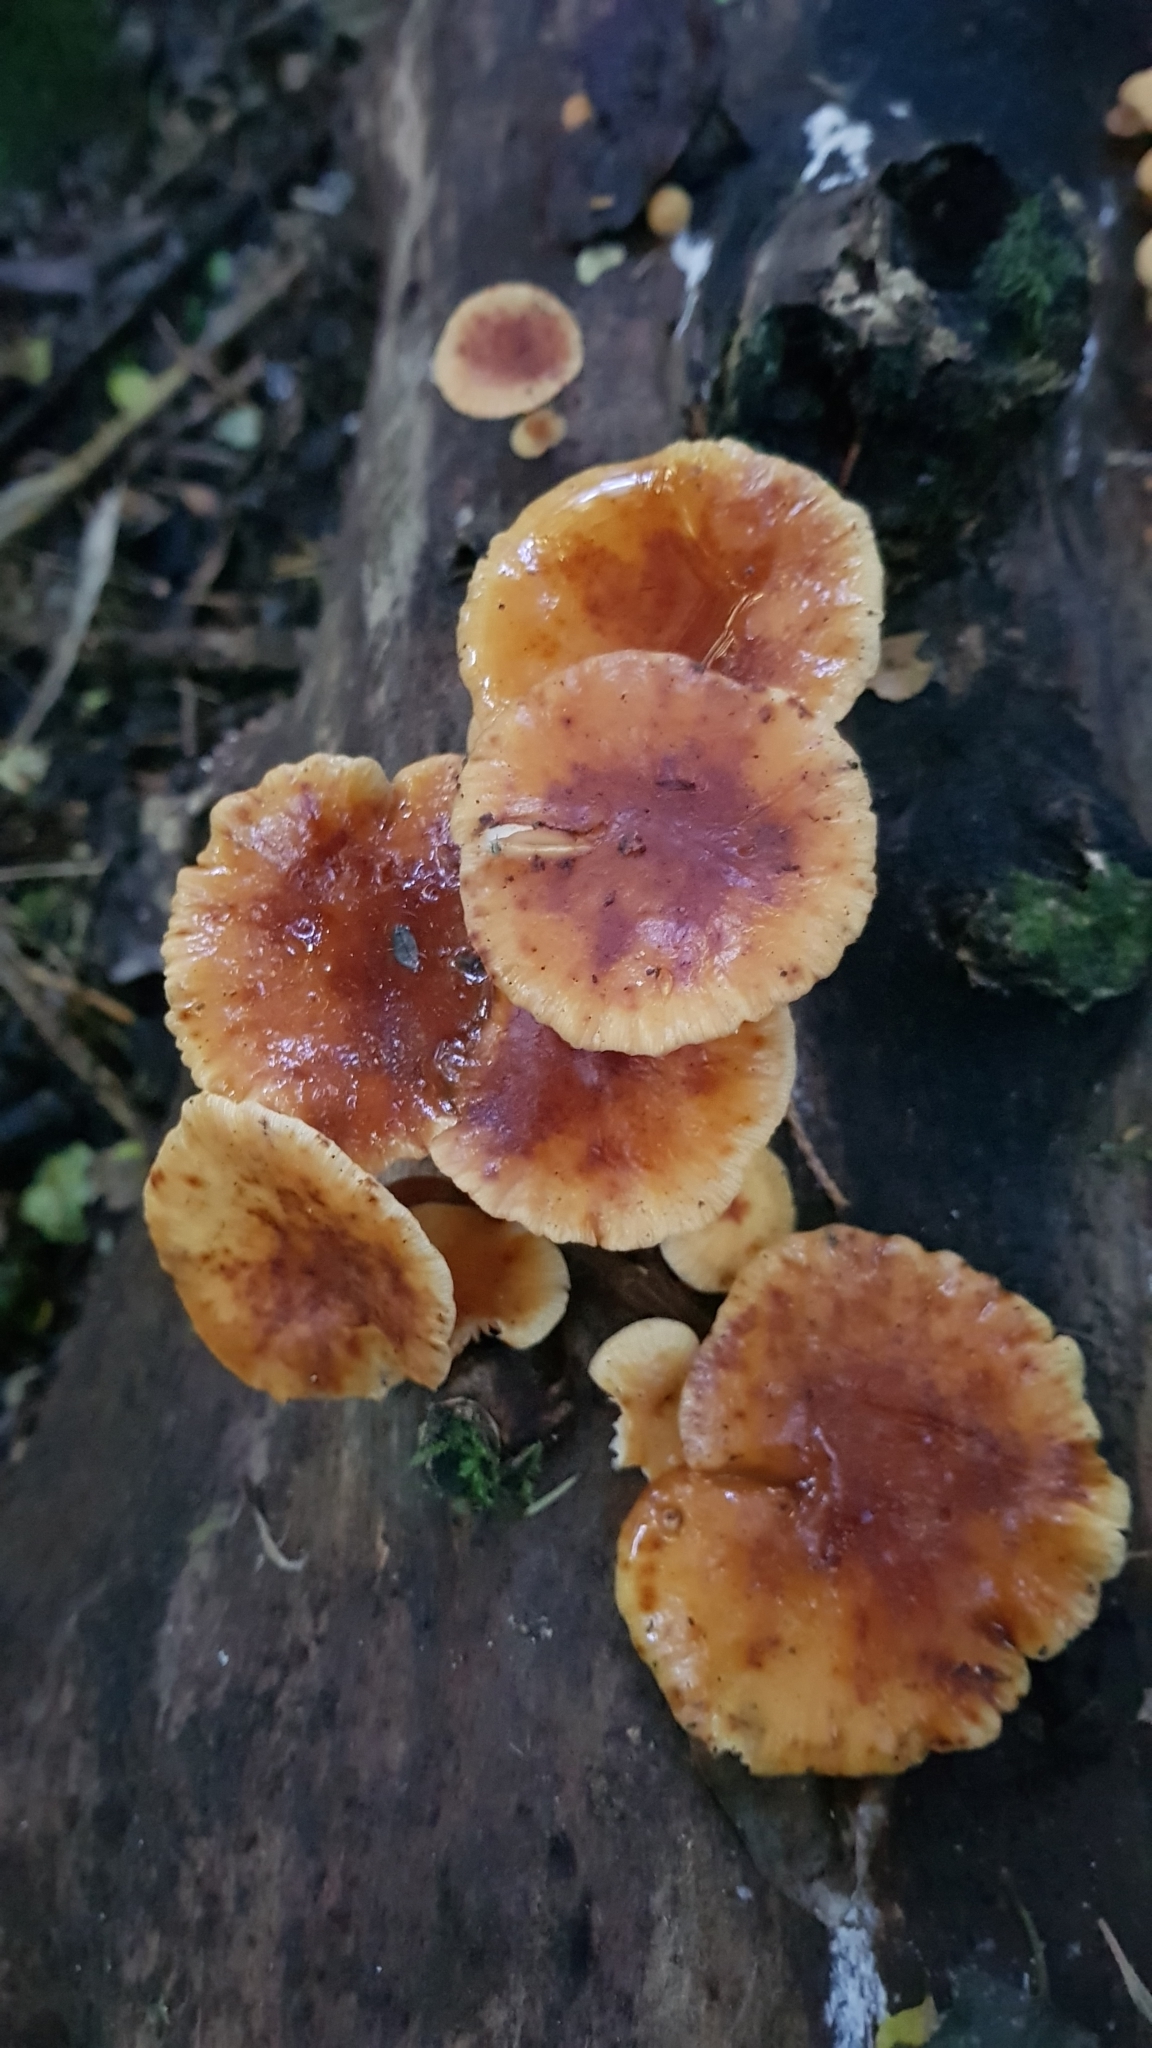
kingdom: Fungi
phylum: Basidiomycota
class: Agaricomycetes
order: Agaricales
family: Physalacriaceae
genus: Flammulina
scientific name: Flammulina velutipes
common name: Velvet shank
